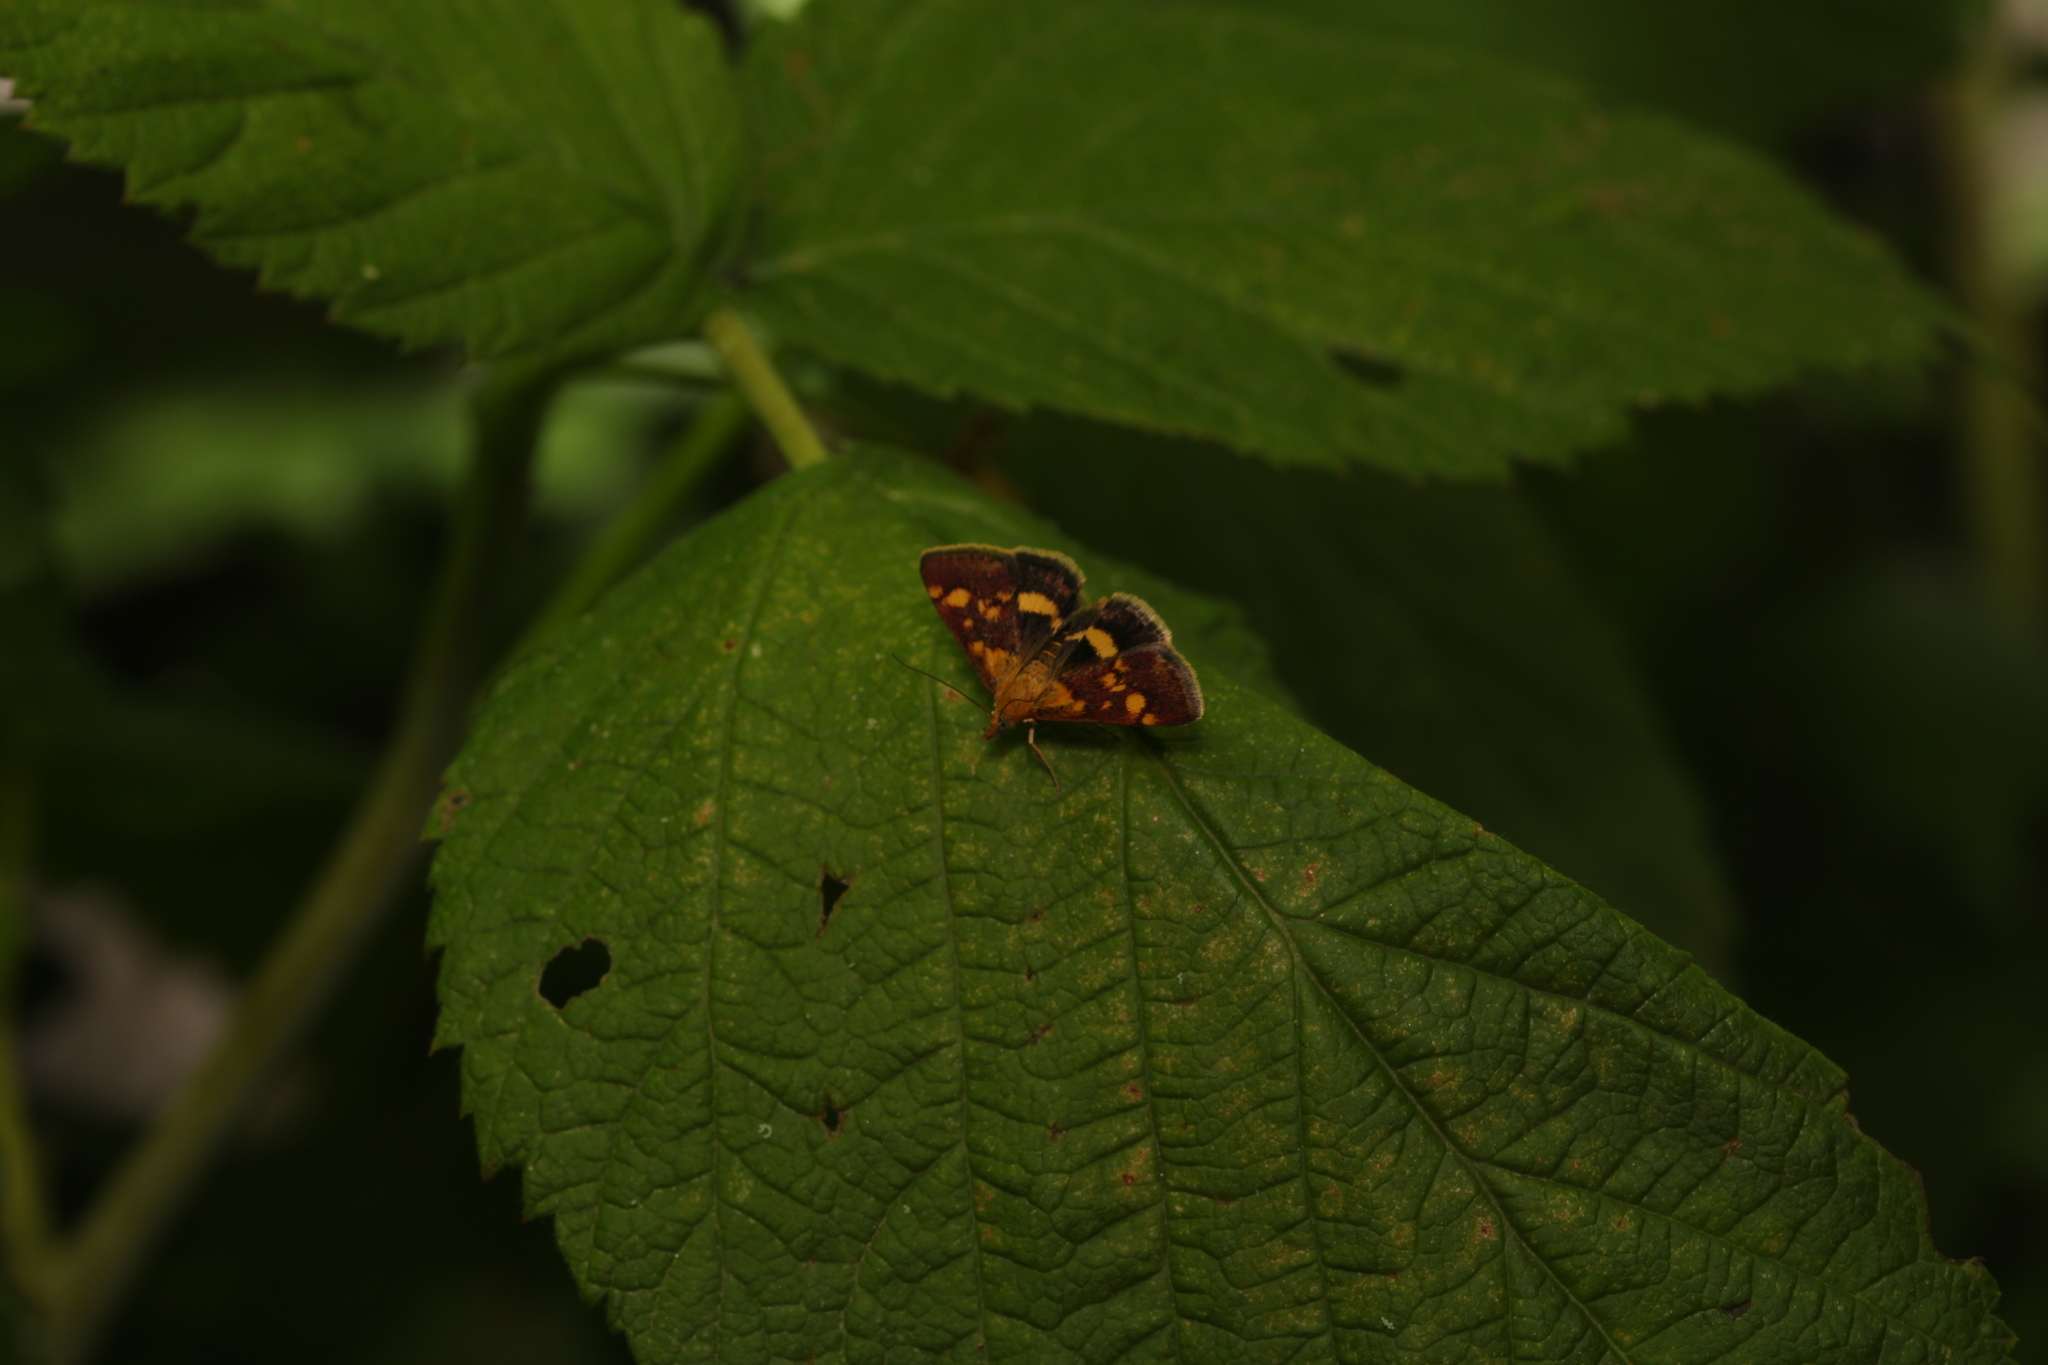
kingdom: Animalia
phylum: Arthropoda
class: Insecta
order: Lepidoptera
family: Crambidae
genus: Pyrausta
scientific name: Pyrausta aurata
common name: Small purple & gold
